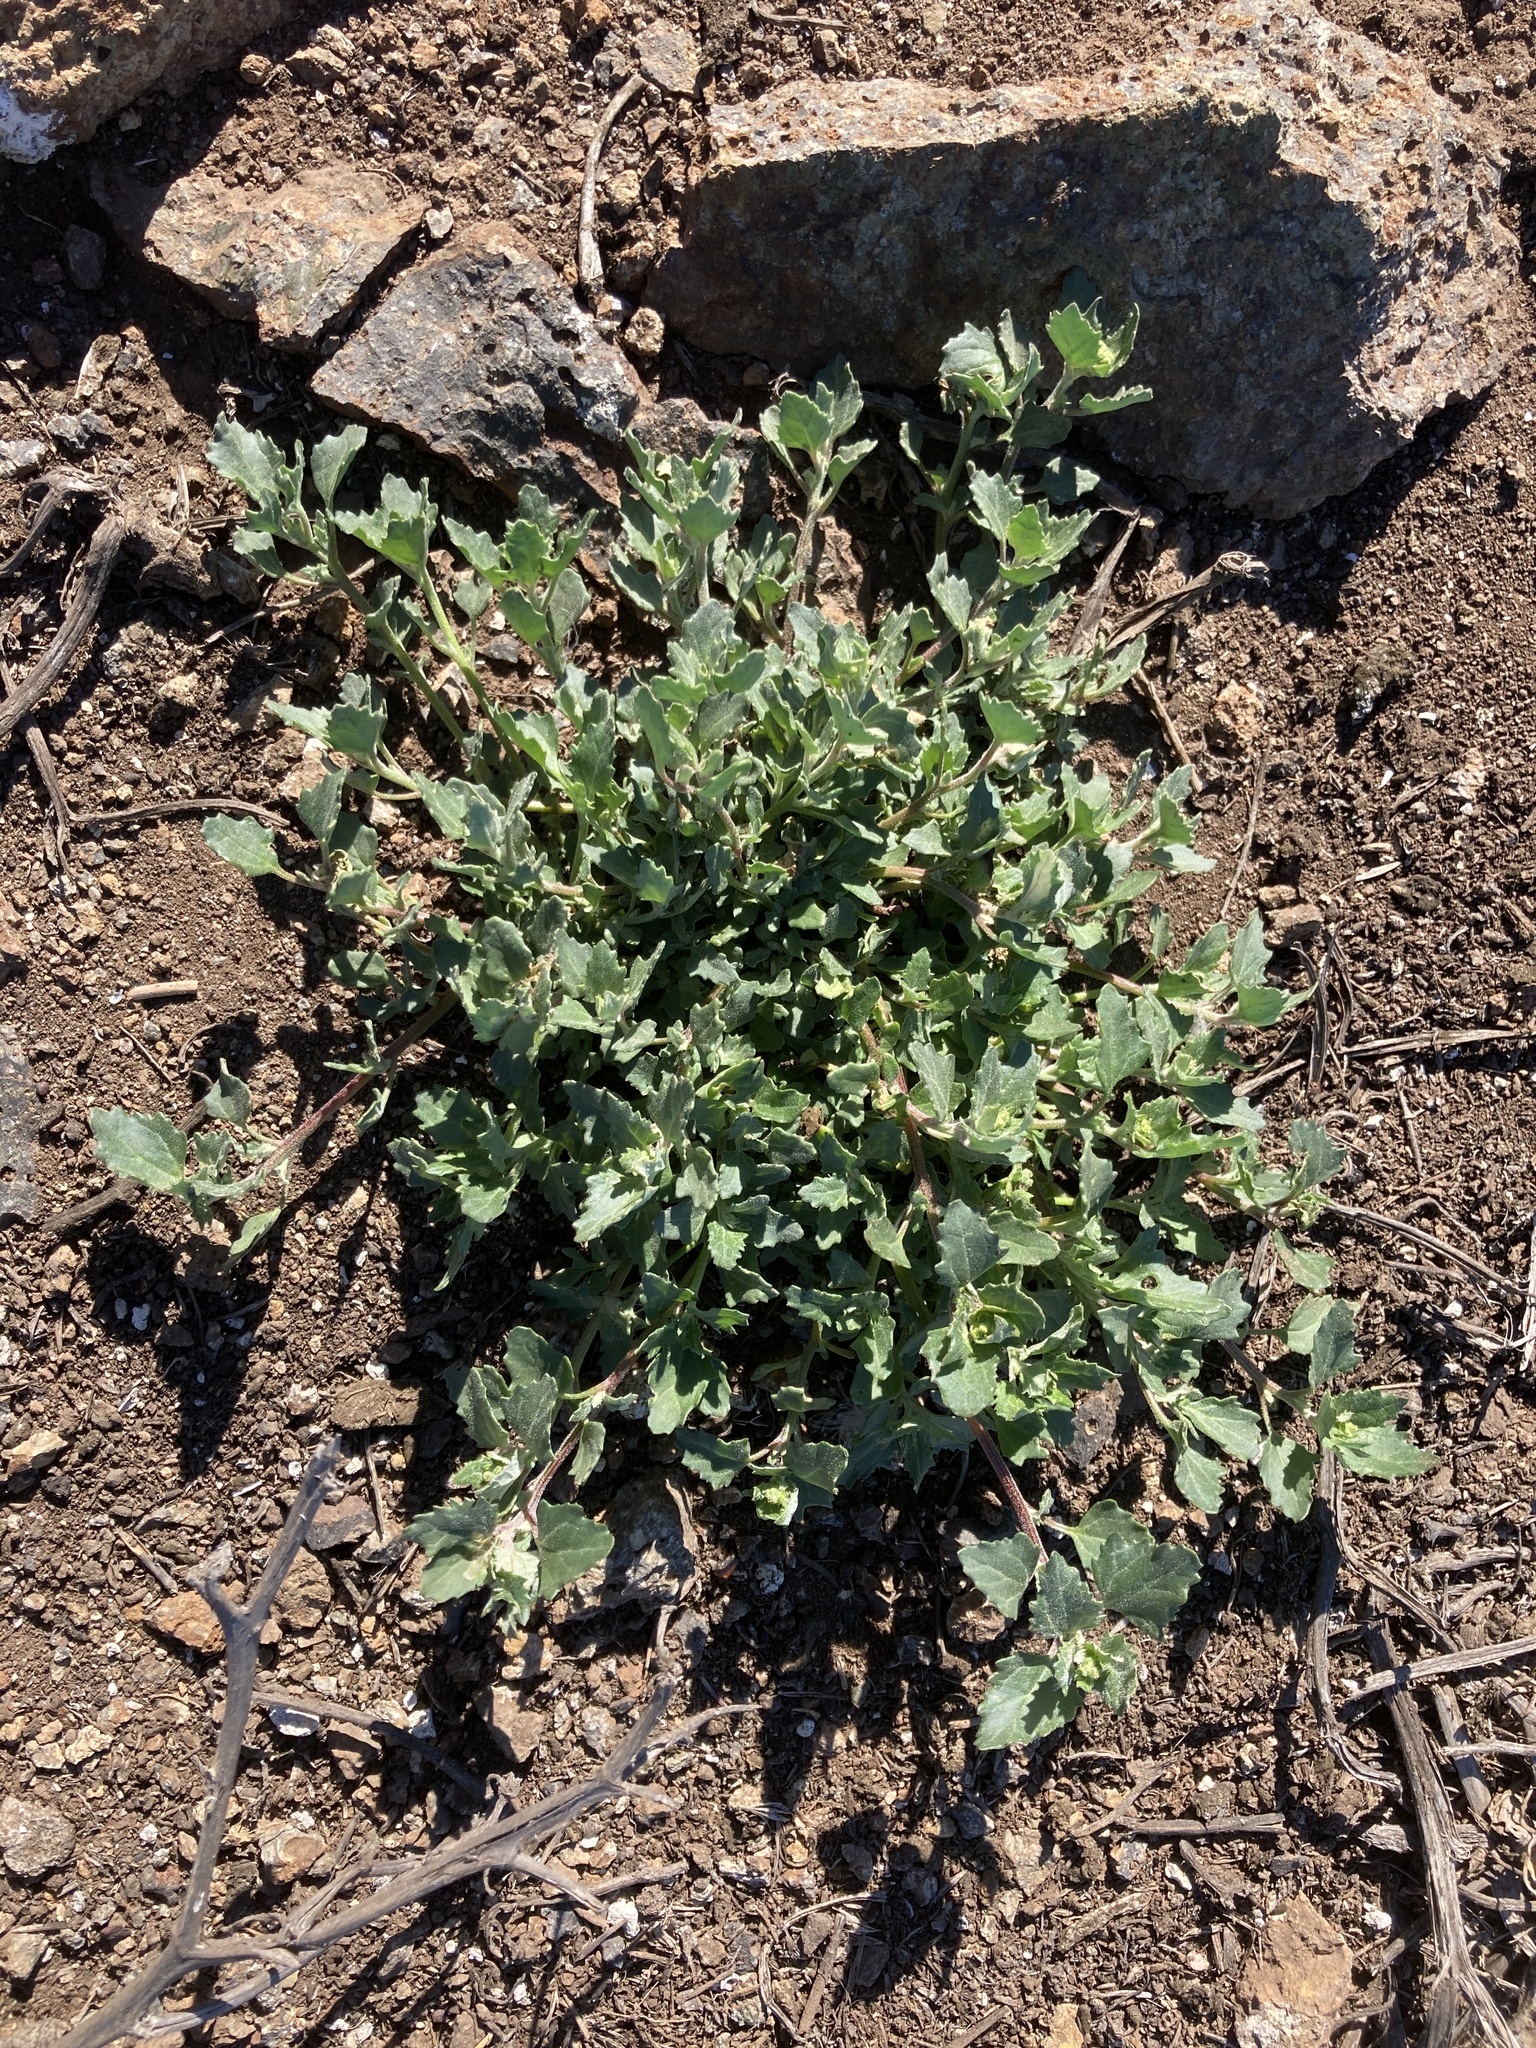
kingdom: Plantae
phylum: Tracheophyta
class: Magnoliopsida
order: Caryophyllales
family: Amaranthaceae
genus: Chenopodiastrum
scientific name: Chenopodiastrum murale
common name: Sowbane
